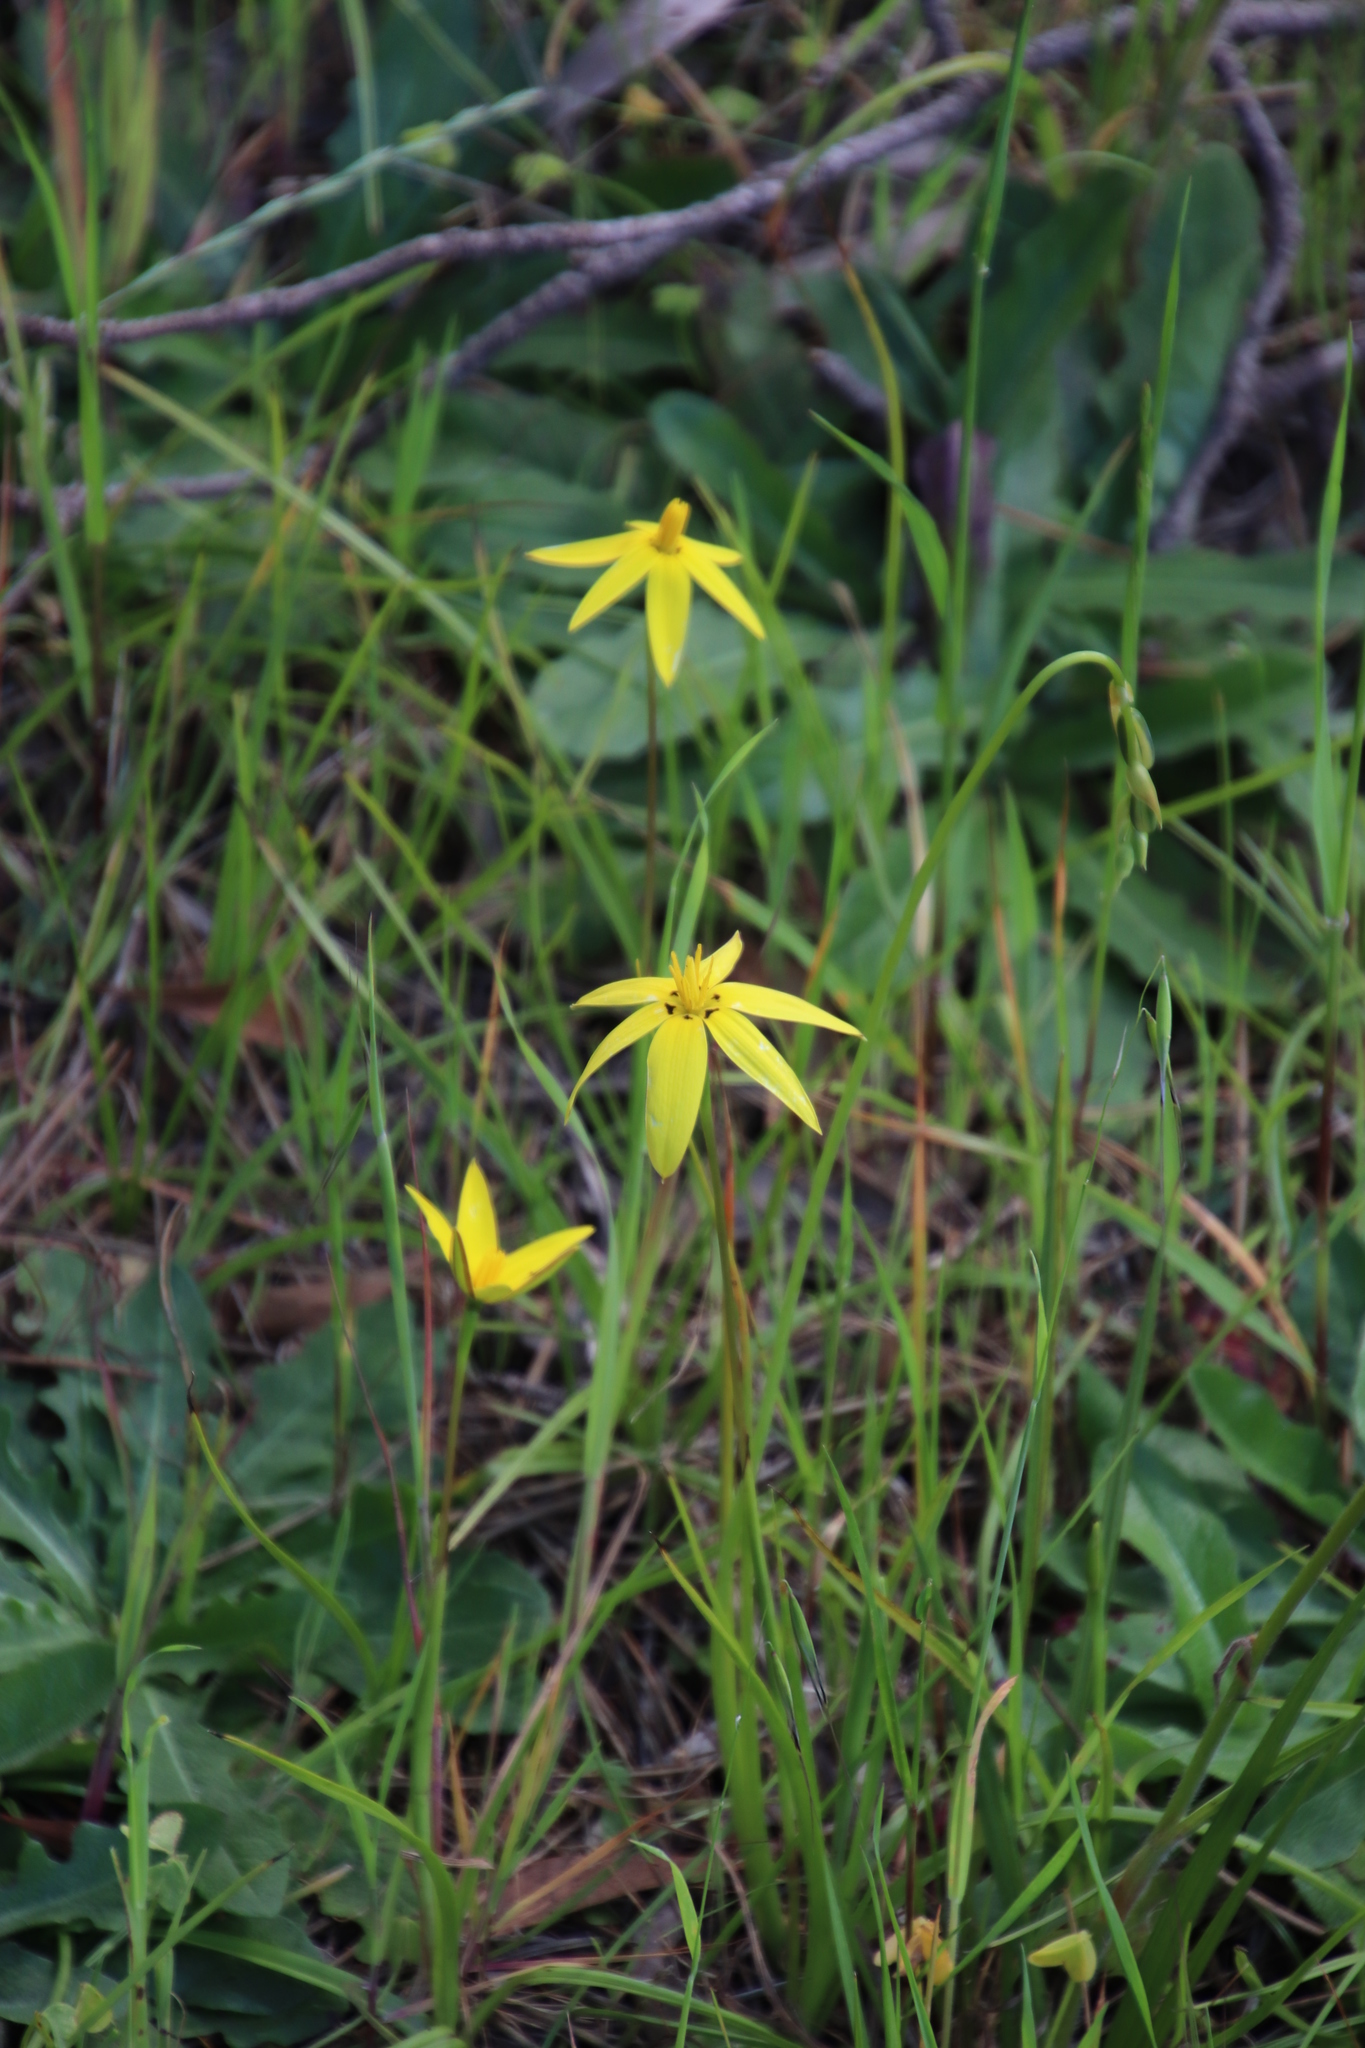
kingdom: Plantae
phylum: Tracheophyta
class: Liliopsida
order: Asparagales
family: Hypoxidaceae
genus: Pauridia
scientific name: Pauridia capensis
